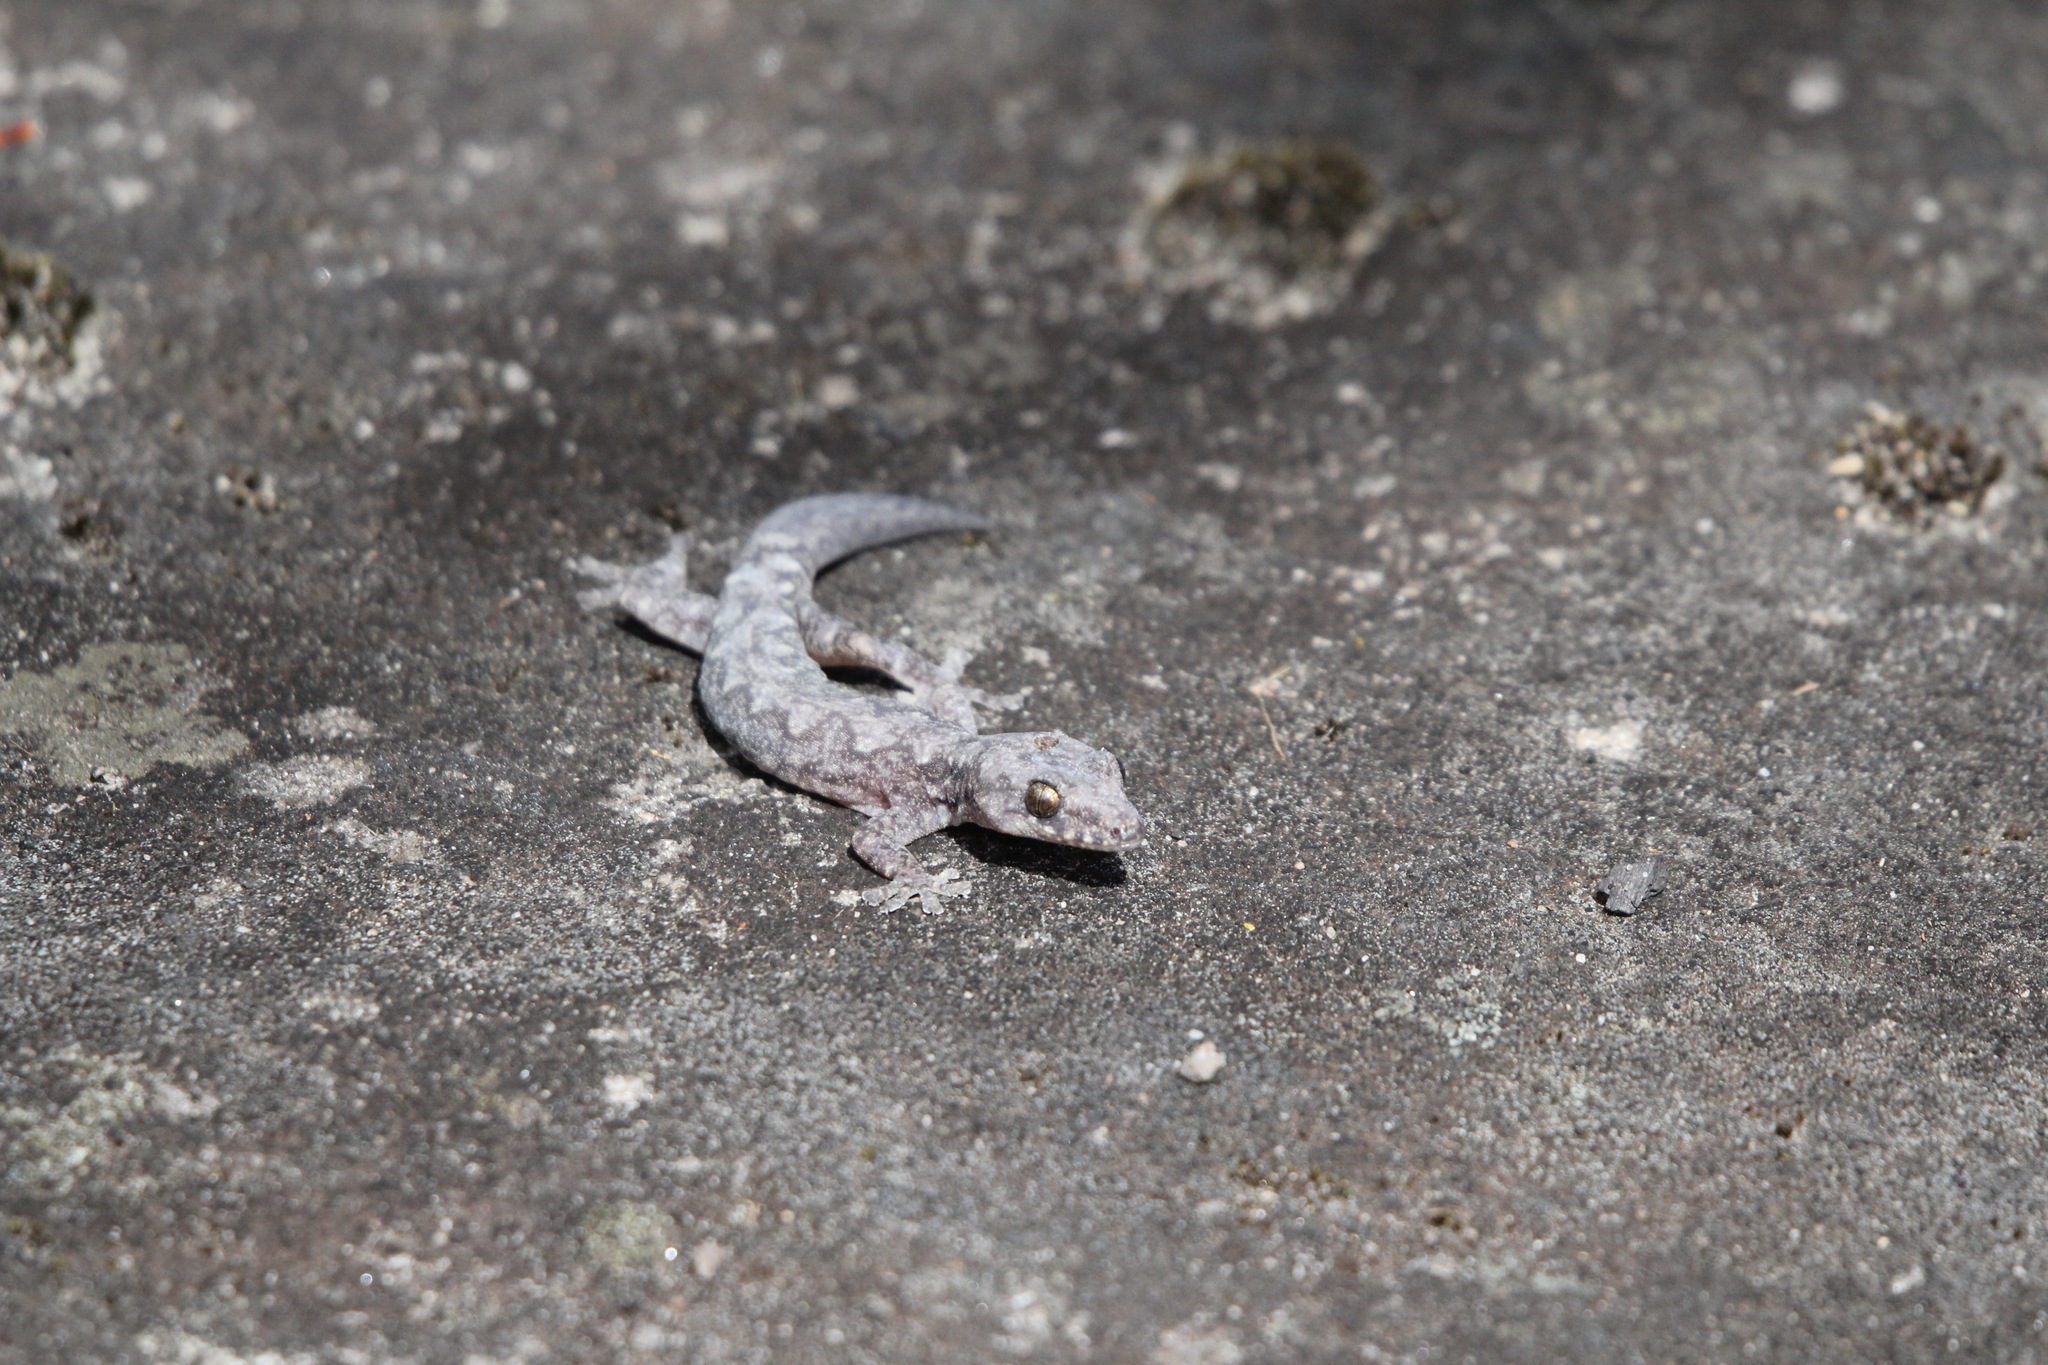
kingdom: Animalia
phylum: Chordata
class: Squamata
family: Diplodactylidae
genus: Amalosia
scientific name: Amalosia lesueurii
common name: Lesueur's gecko
